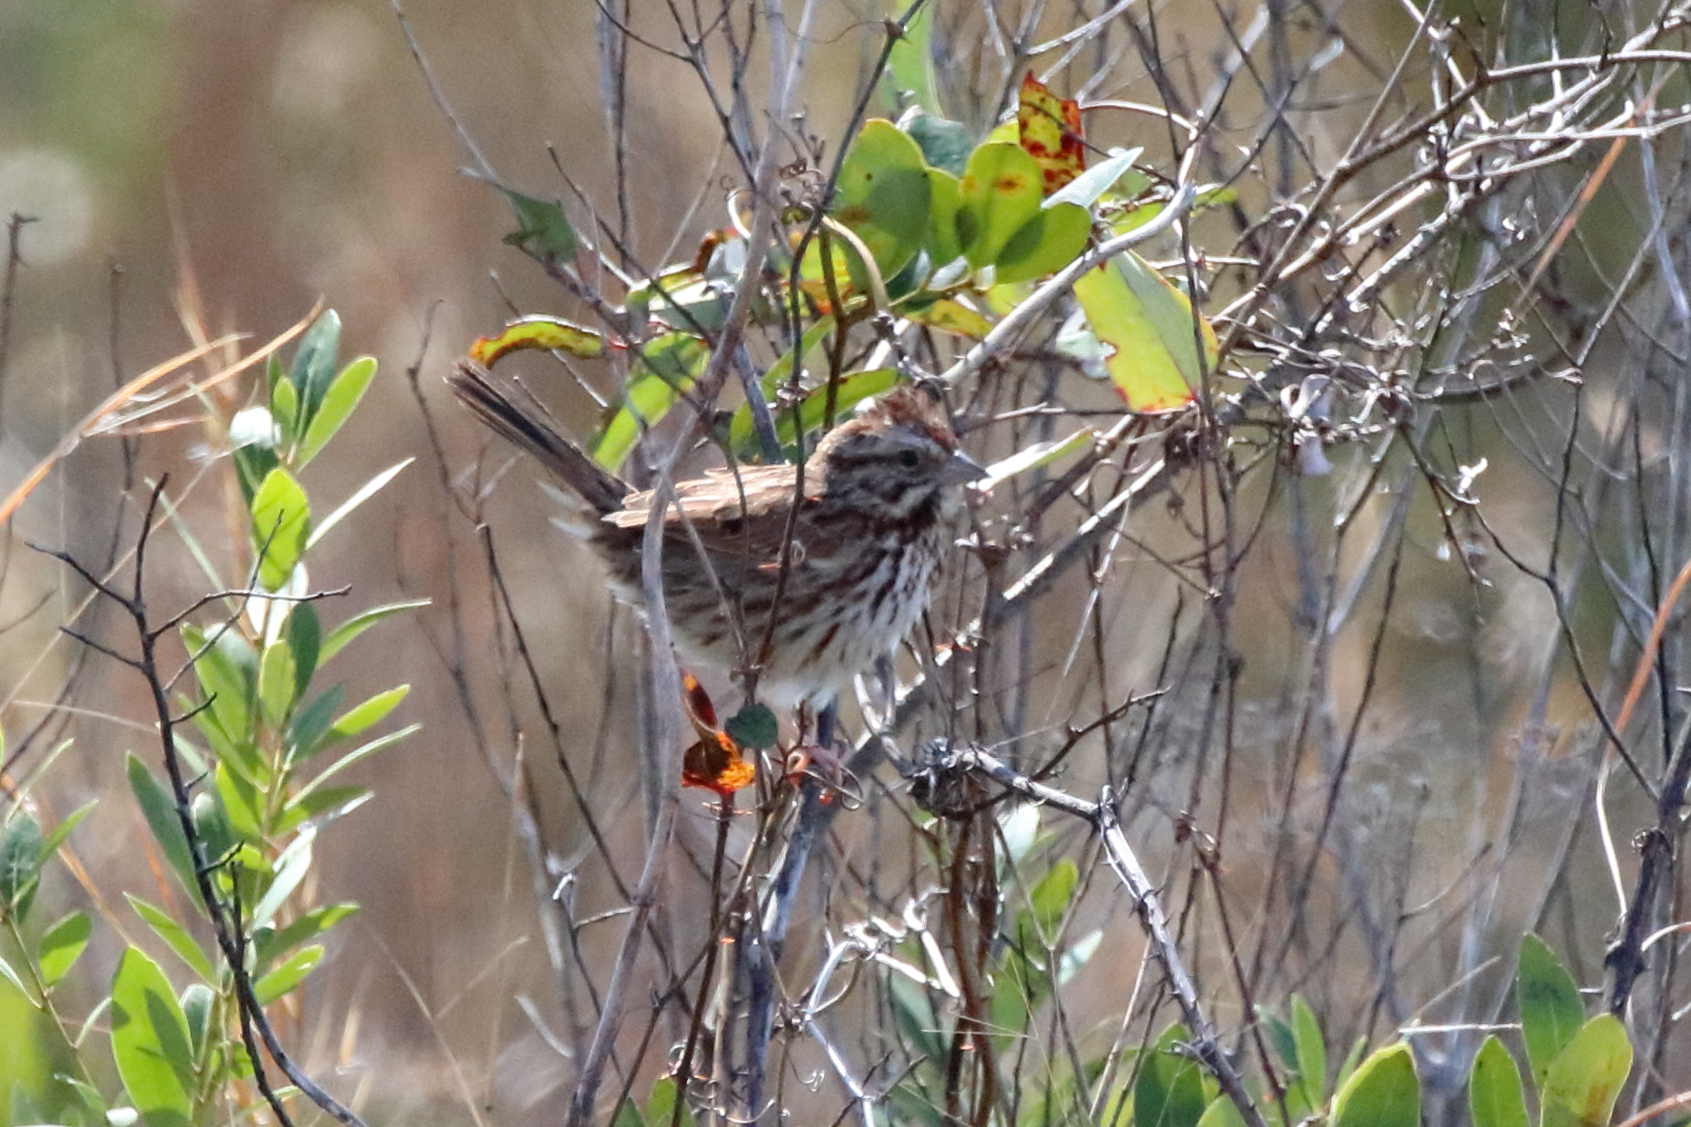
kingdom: Animalia
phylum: Chordata
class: Aves
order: Passeriformes
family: Passerellidae
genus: Melospiza
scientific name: Melospiza melodia
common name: Song sparrow
